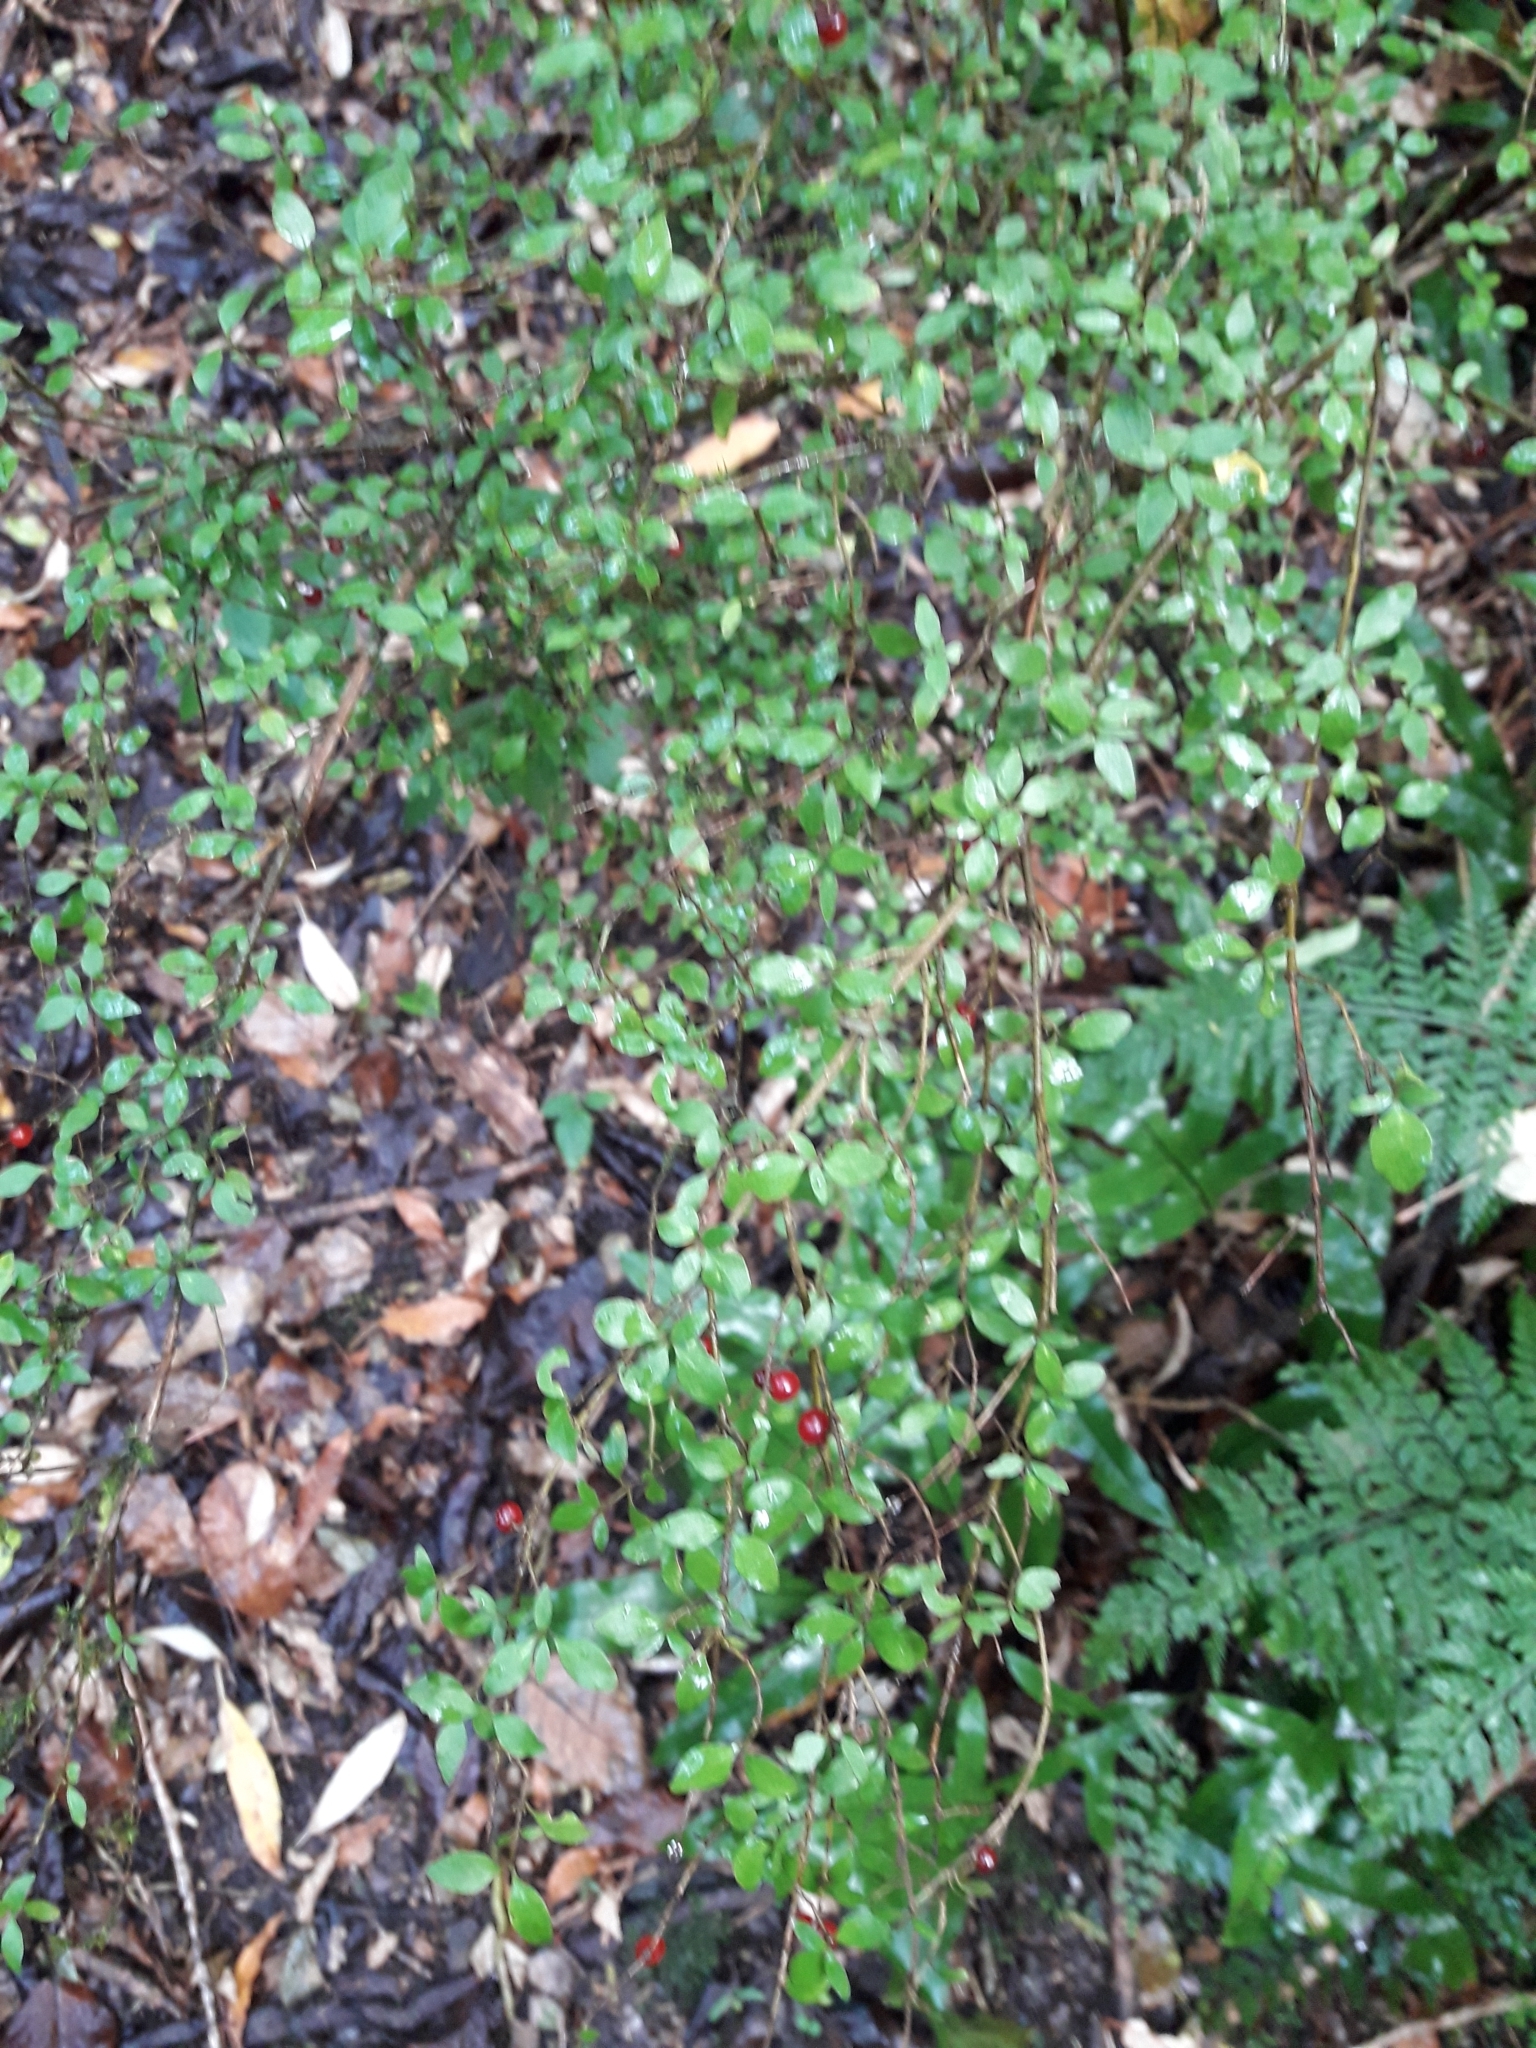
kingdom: Plantae
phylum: Tracheophyta
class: Magnoliopsida
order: Gentianales
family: Rubiaceae
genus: Coprosma
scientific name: Coprosma rhamnoides
